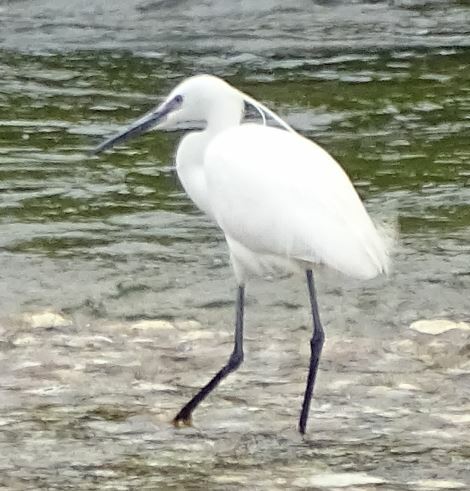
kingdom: Animalia
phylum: Chordata
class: Aves
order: Pelecaniformes
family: Ardeidae
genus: Egretta
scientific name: Egretta garzetta
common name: Little egret
